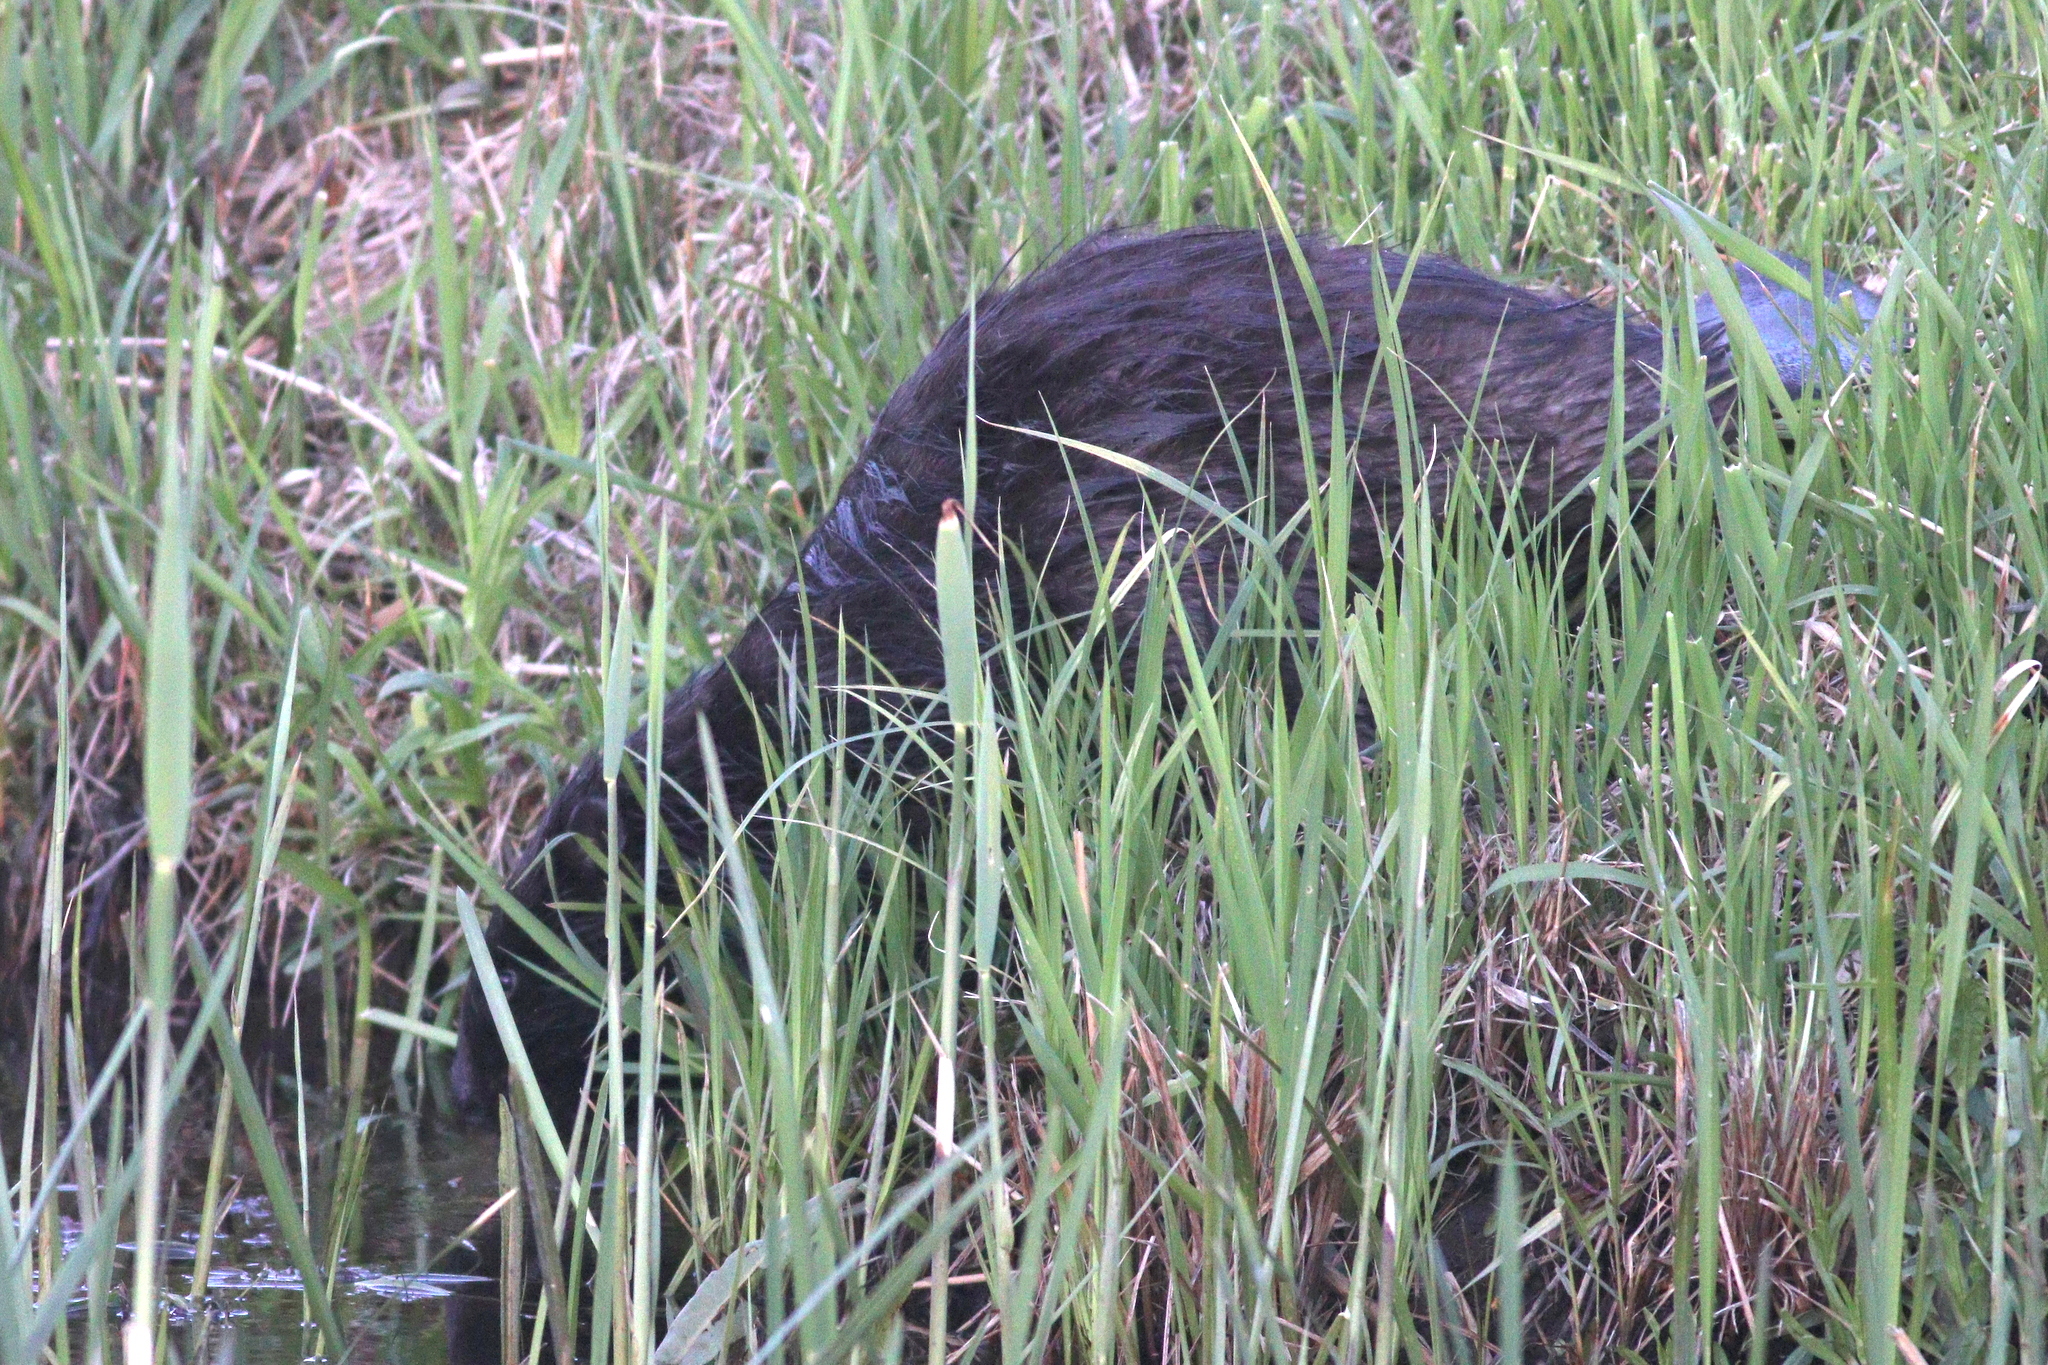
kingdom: Animalia
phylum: Chordata
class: Mammalia
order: Rodentia
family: Castoridae
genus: Castor
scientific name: Castor fiber
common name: Eurasian beaver
